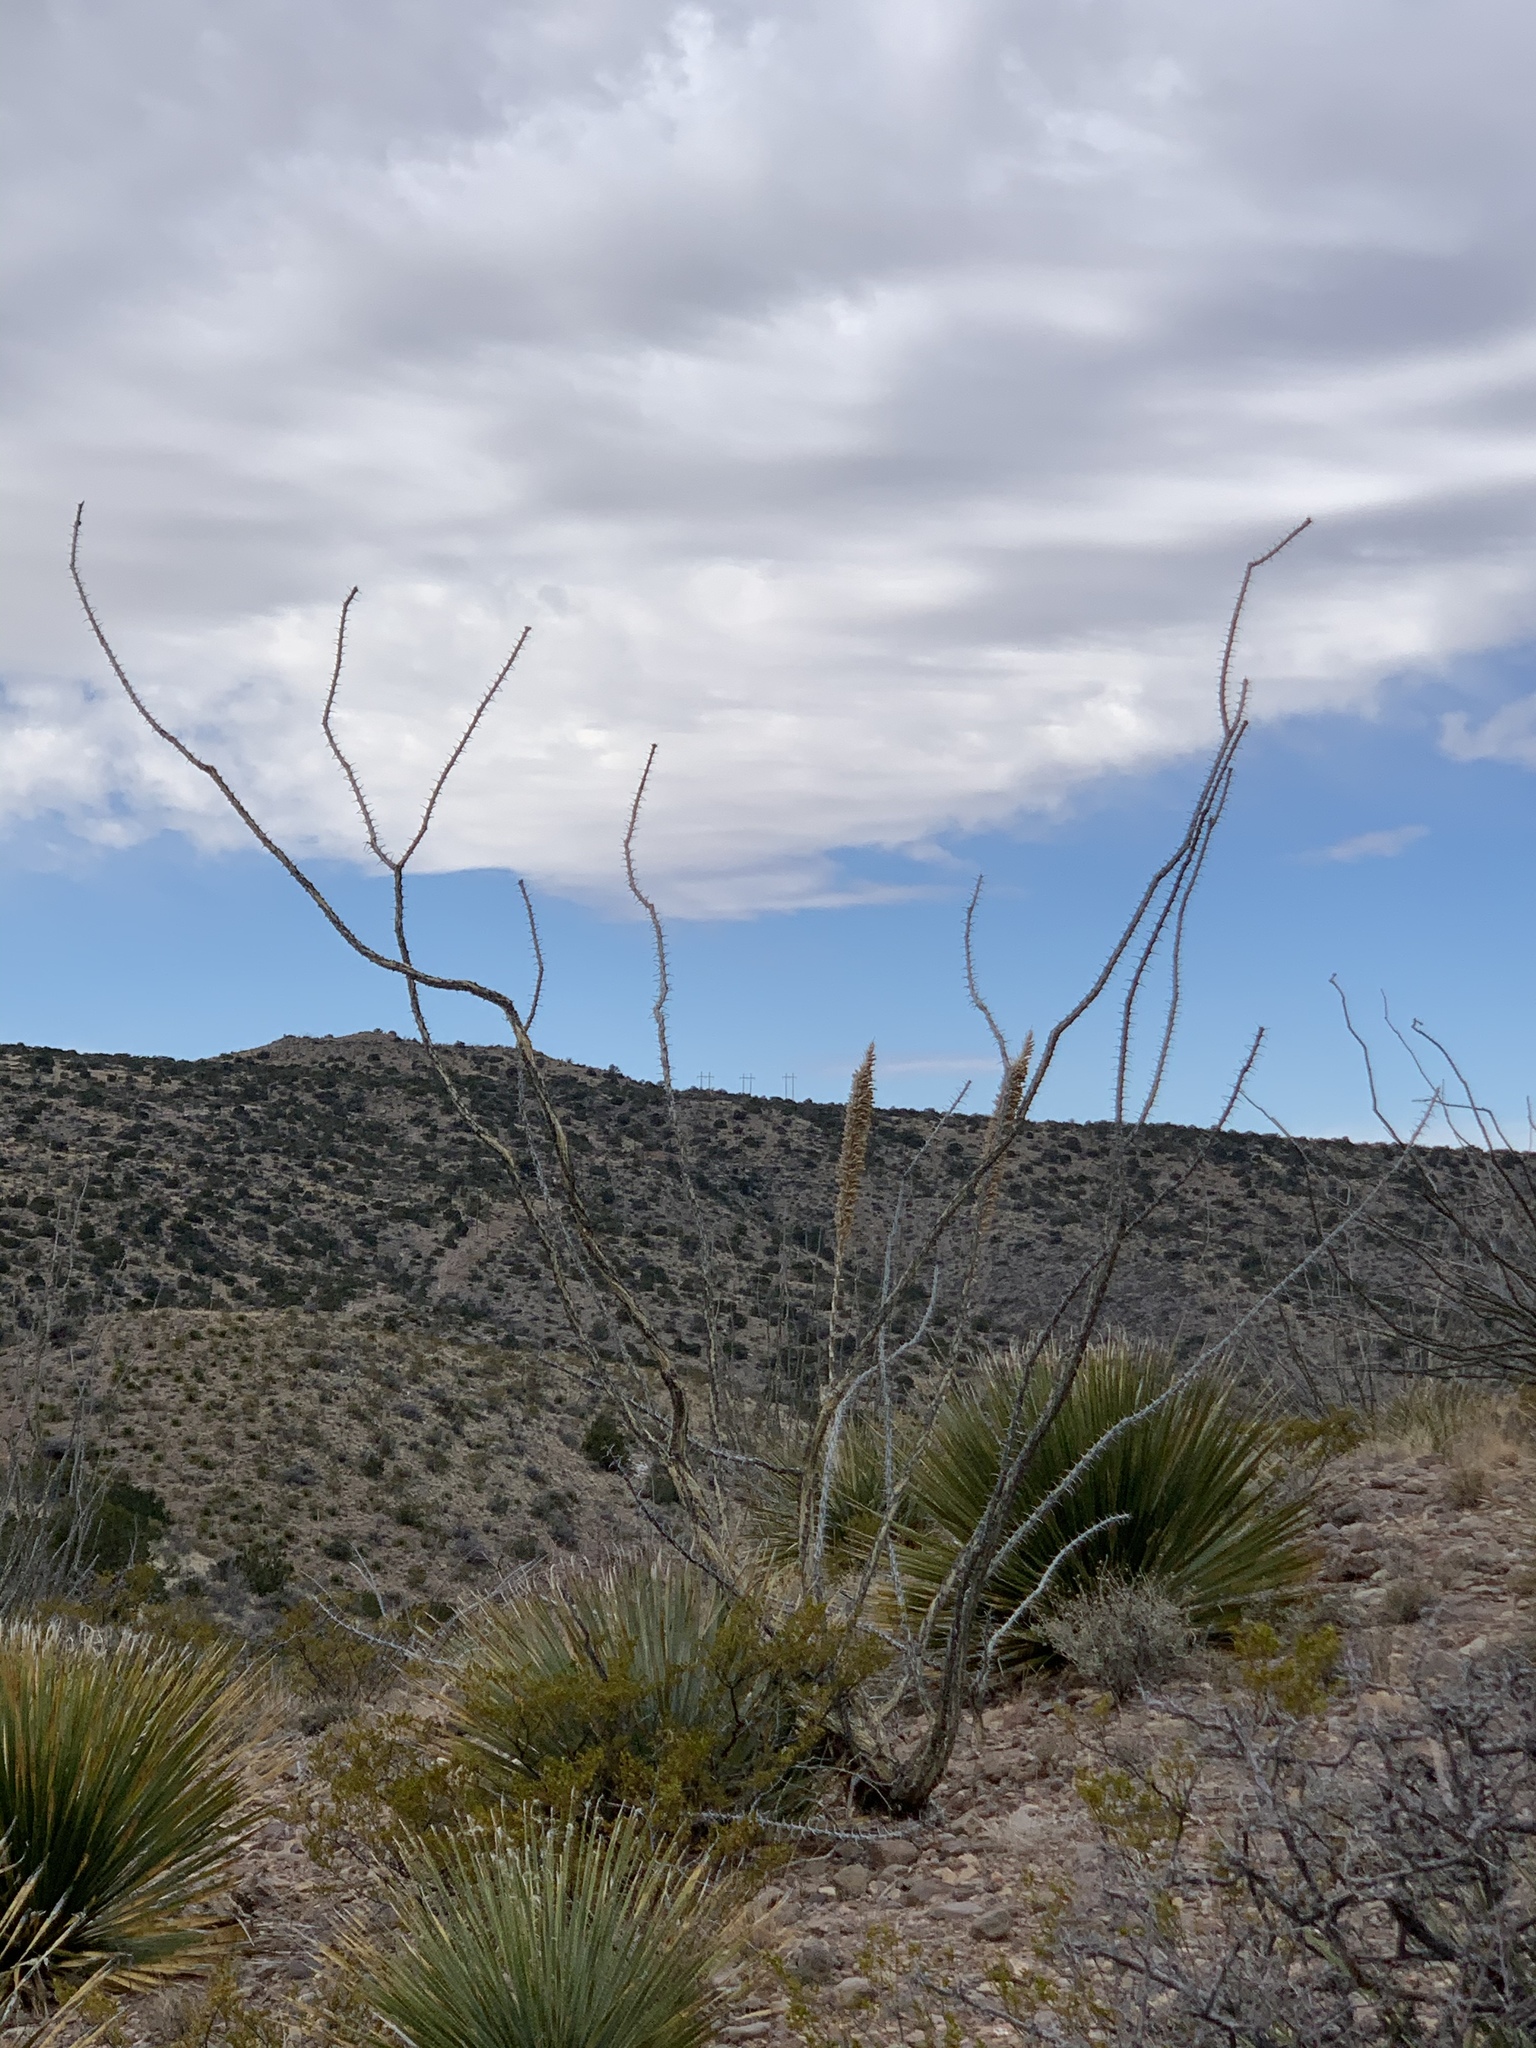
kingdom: Plantae
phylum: Tracheophyta
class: Magnoliopsida
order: Ericales
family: Fouquieriaceae
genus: Fouquieria
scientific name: Fouquieria splendens
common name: Vine-cactus
